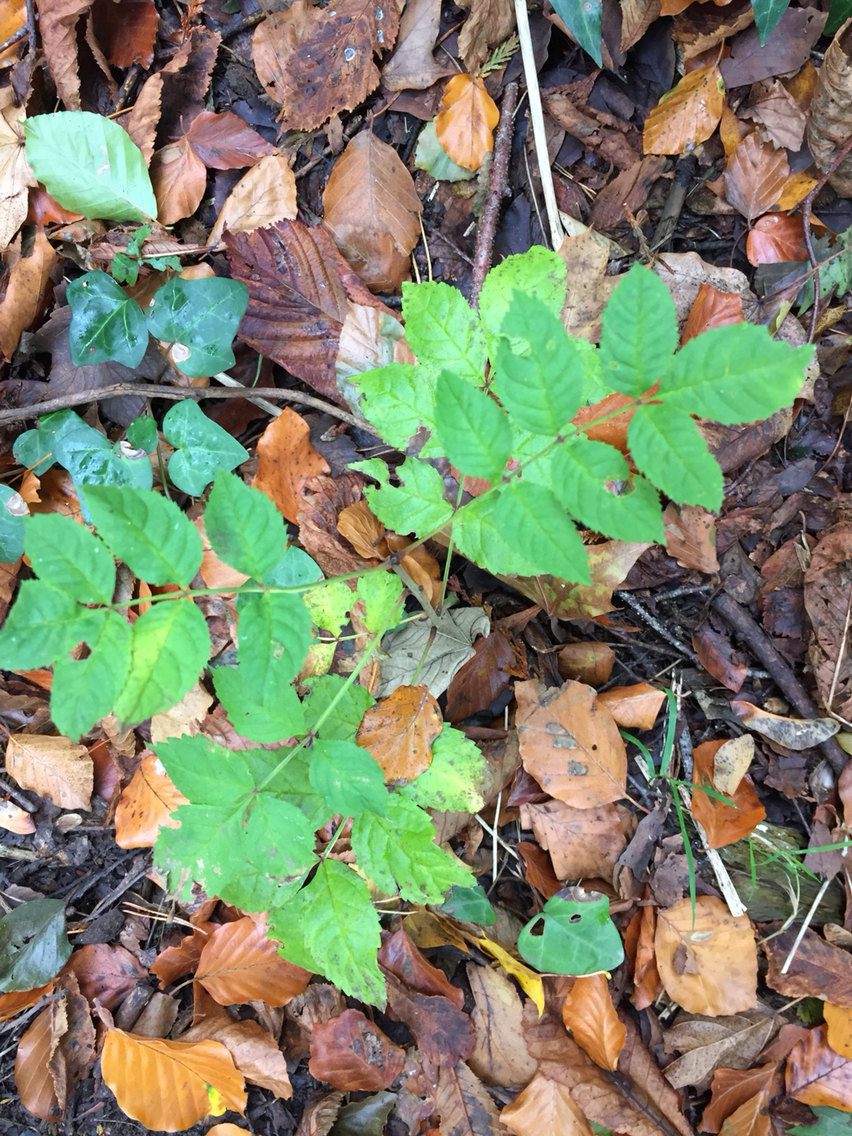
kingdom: Plantae
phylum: Tracheophyta
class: Magnoliopsida
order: Lamiales
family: Oleaceae
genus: Fraxinus
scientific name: Fraxinus excelsior
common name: European ash
